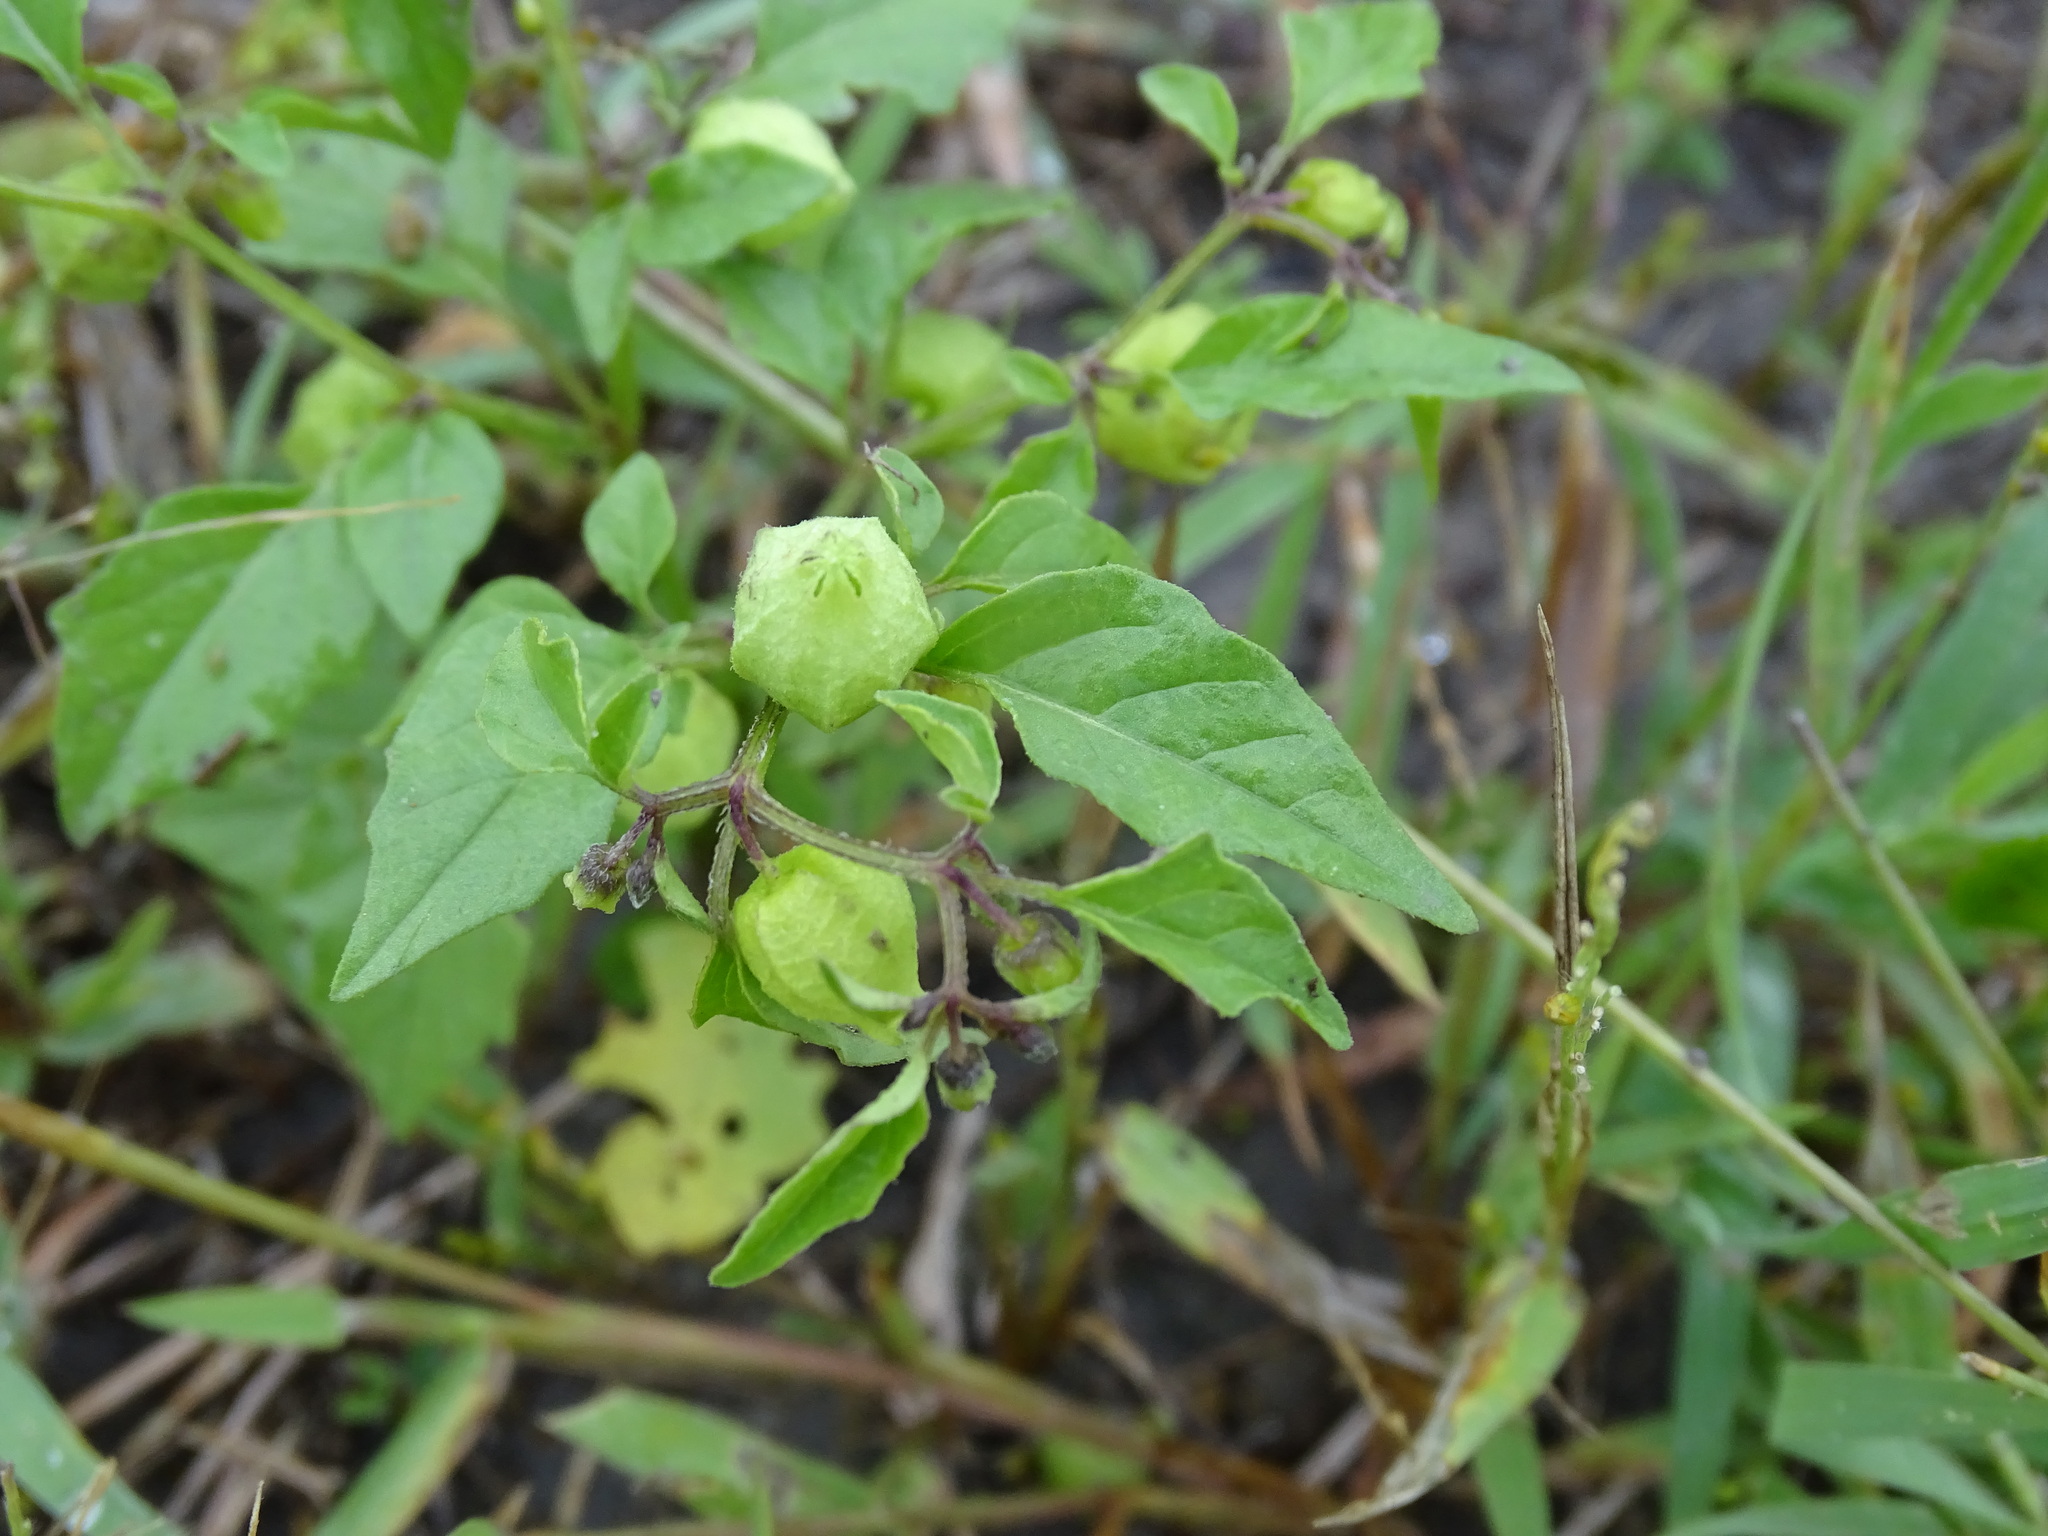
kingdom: Plantae
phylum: Tracheophyta
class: Magnoliopsida
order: Solanales
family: Solanaceae
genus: Physalis
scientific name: Physalis solanacea
